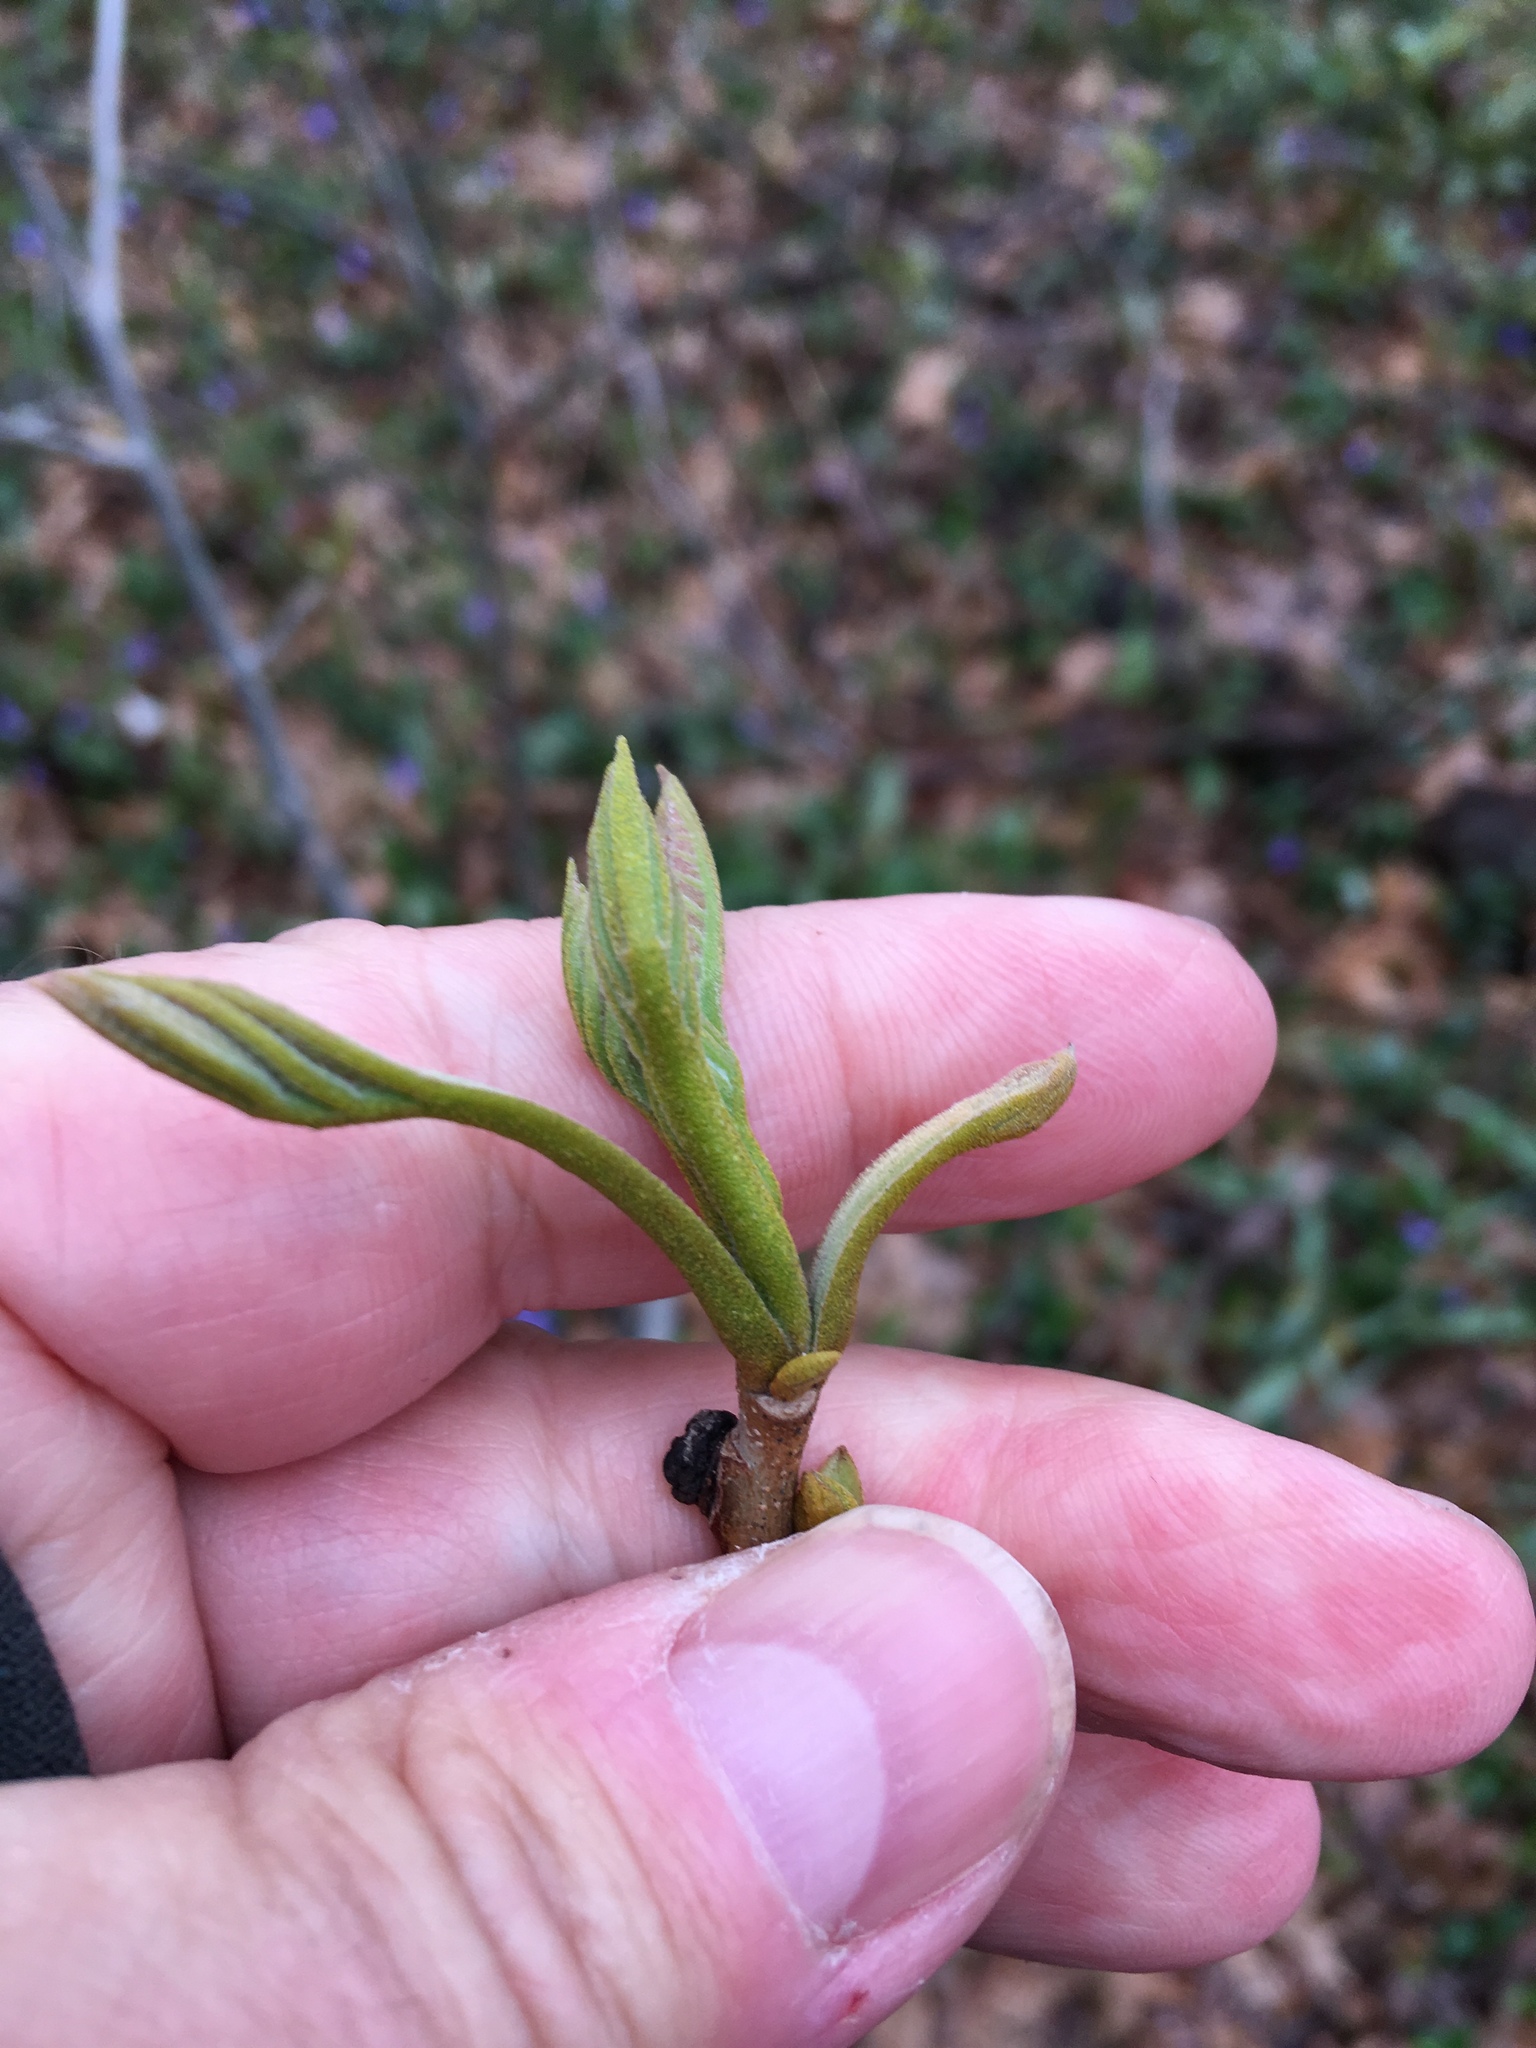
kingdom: Plantae
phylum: Tracheophyta
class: Magnoliopsida
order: Fagales
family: Juglandaceae
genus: Carya
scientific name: Carya cordiformis
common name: Bitternut hickory
